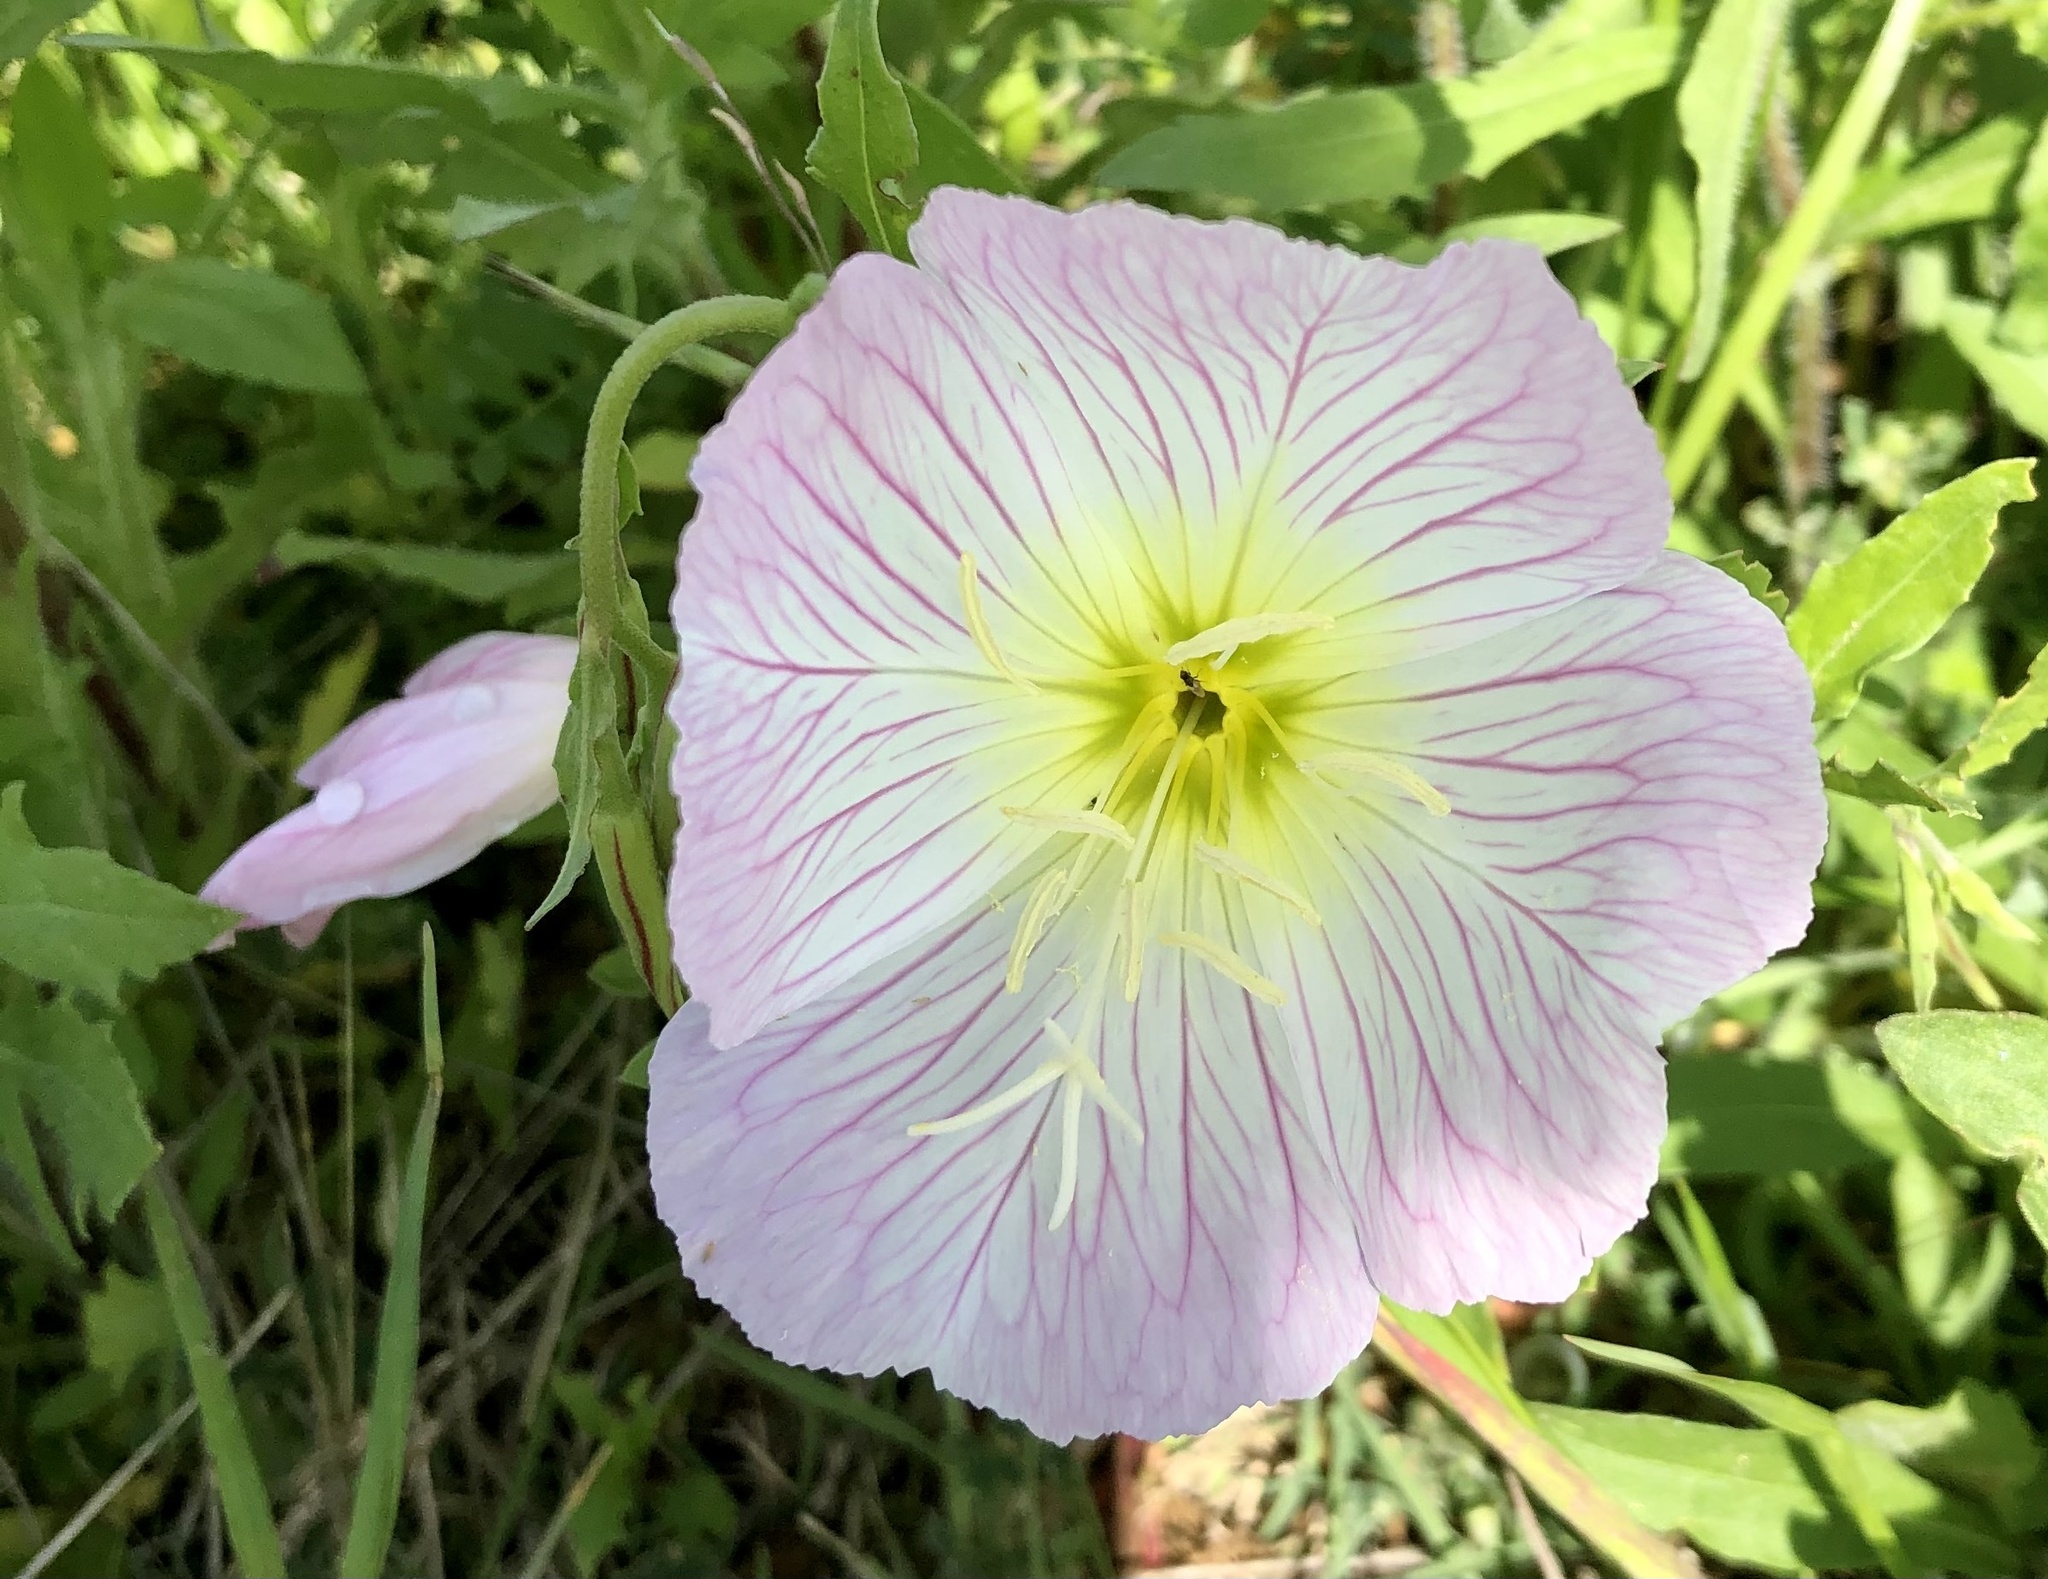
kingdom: Plantae
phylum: Tracheophyta
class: Magnoliopsida
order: Myrtales
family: Onagraceae
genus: Oenothera
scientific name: Oenothera speciosa
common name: White evening-primrose
